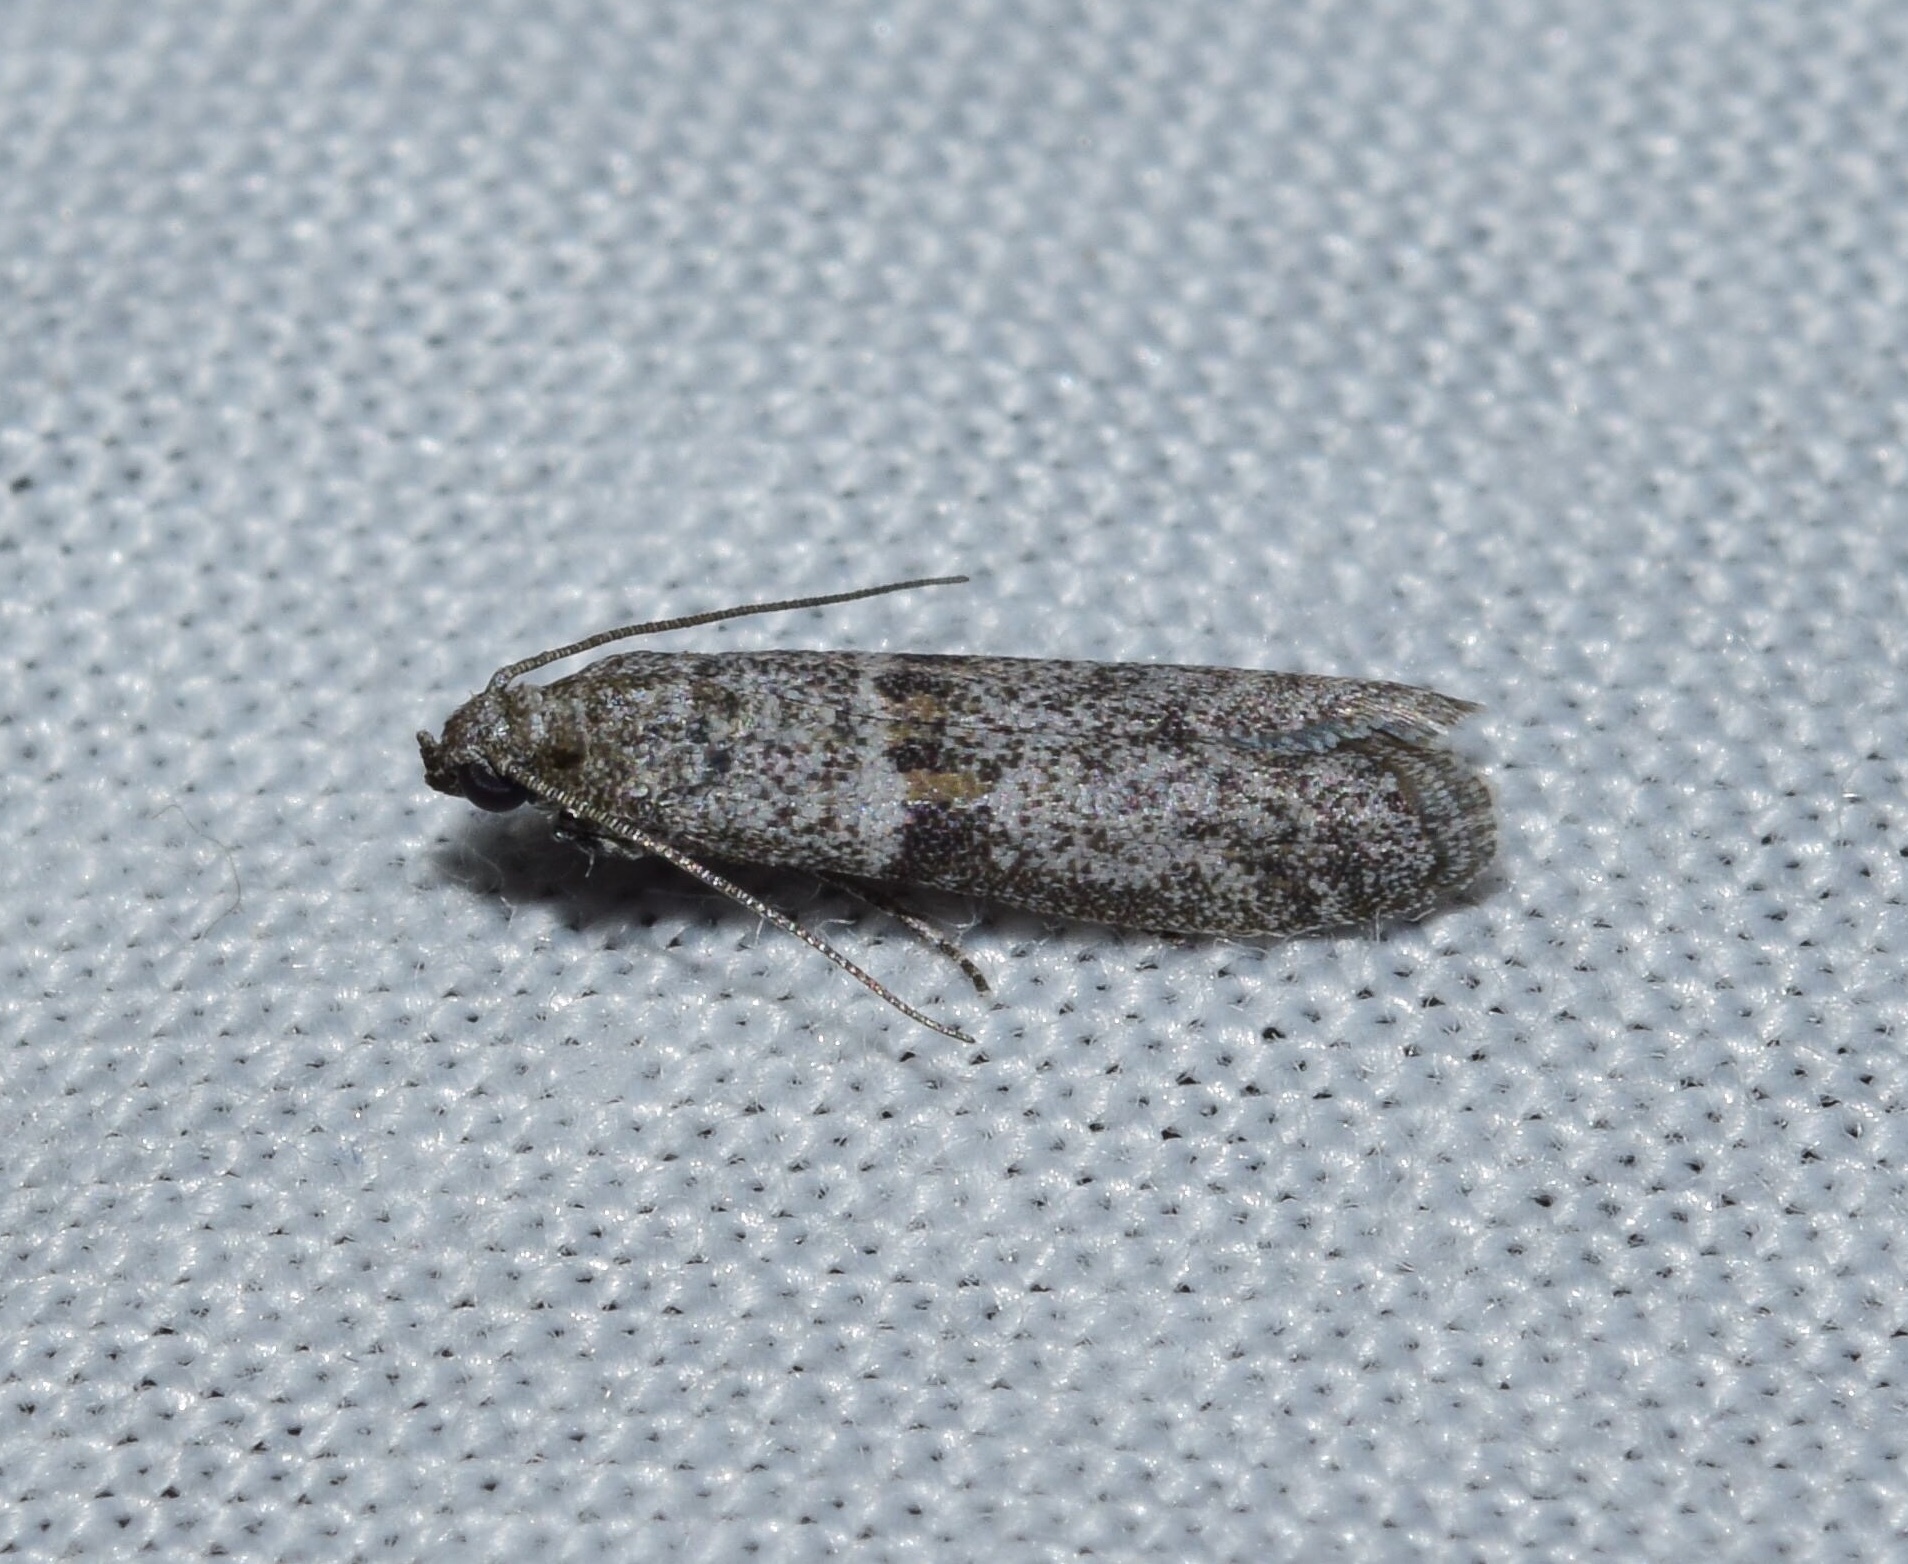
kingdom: Animalia
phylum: Arthropoda
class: Insecta
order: Lepidoptera
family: Pyralidae
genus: Cadra
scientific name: Cadra cautella
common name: Almond moth
